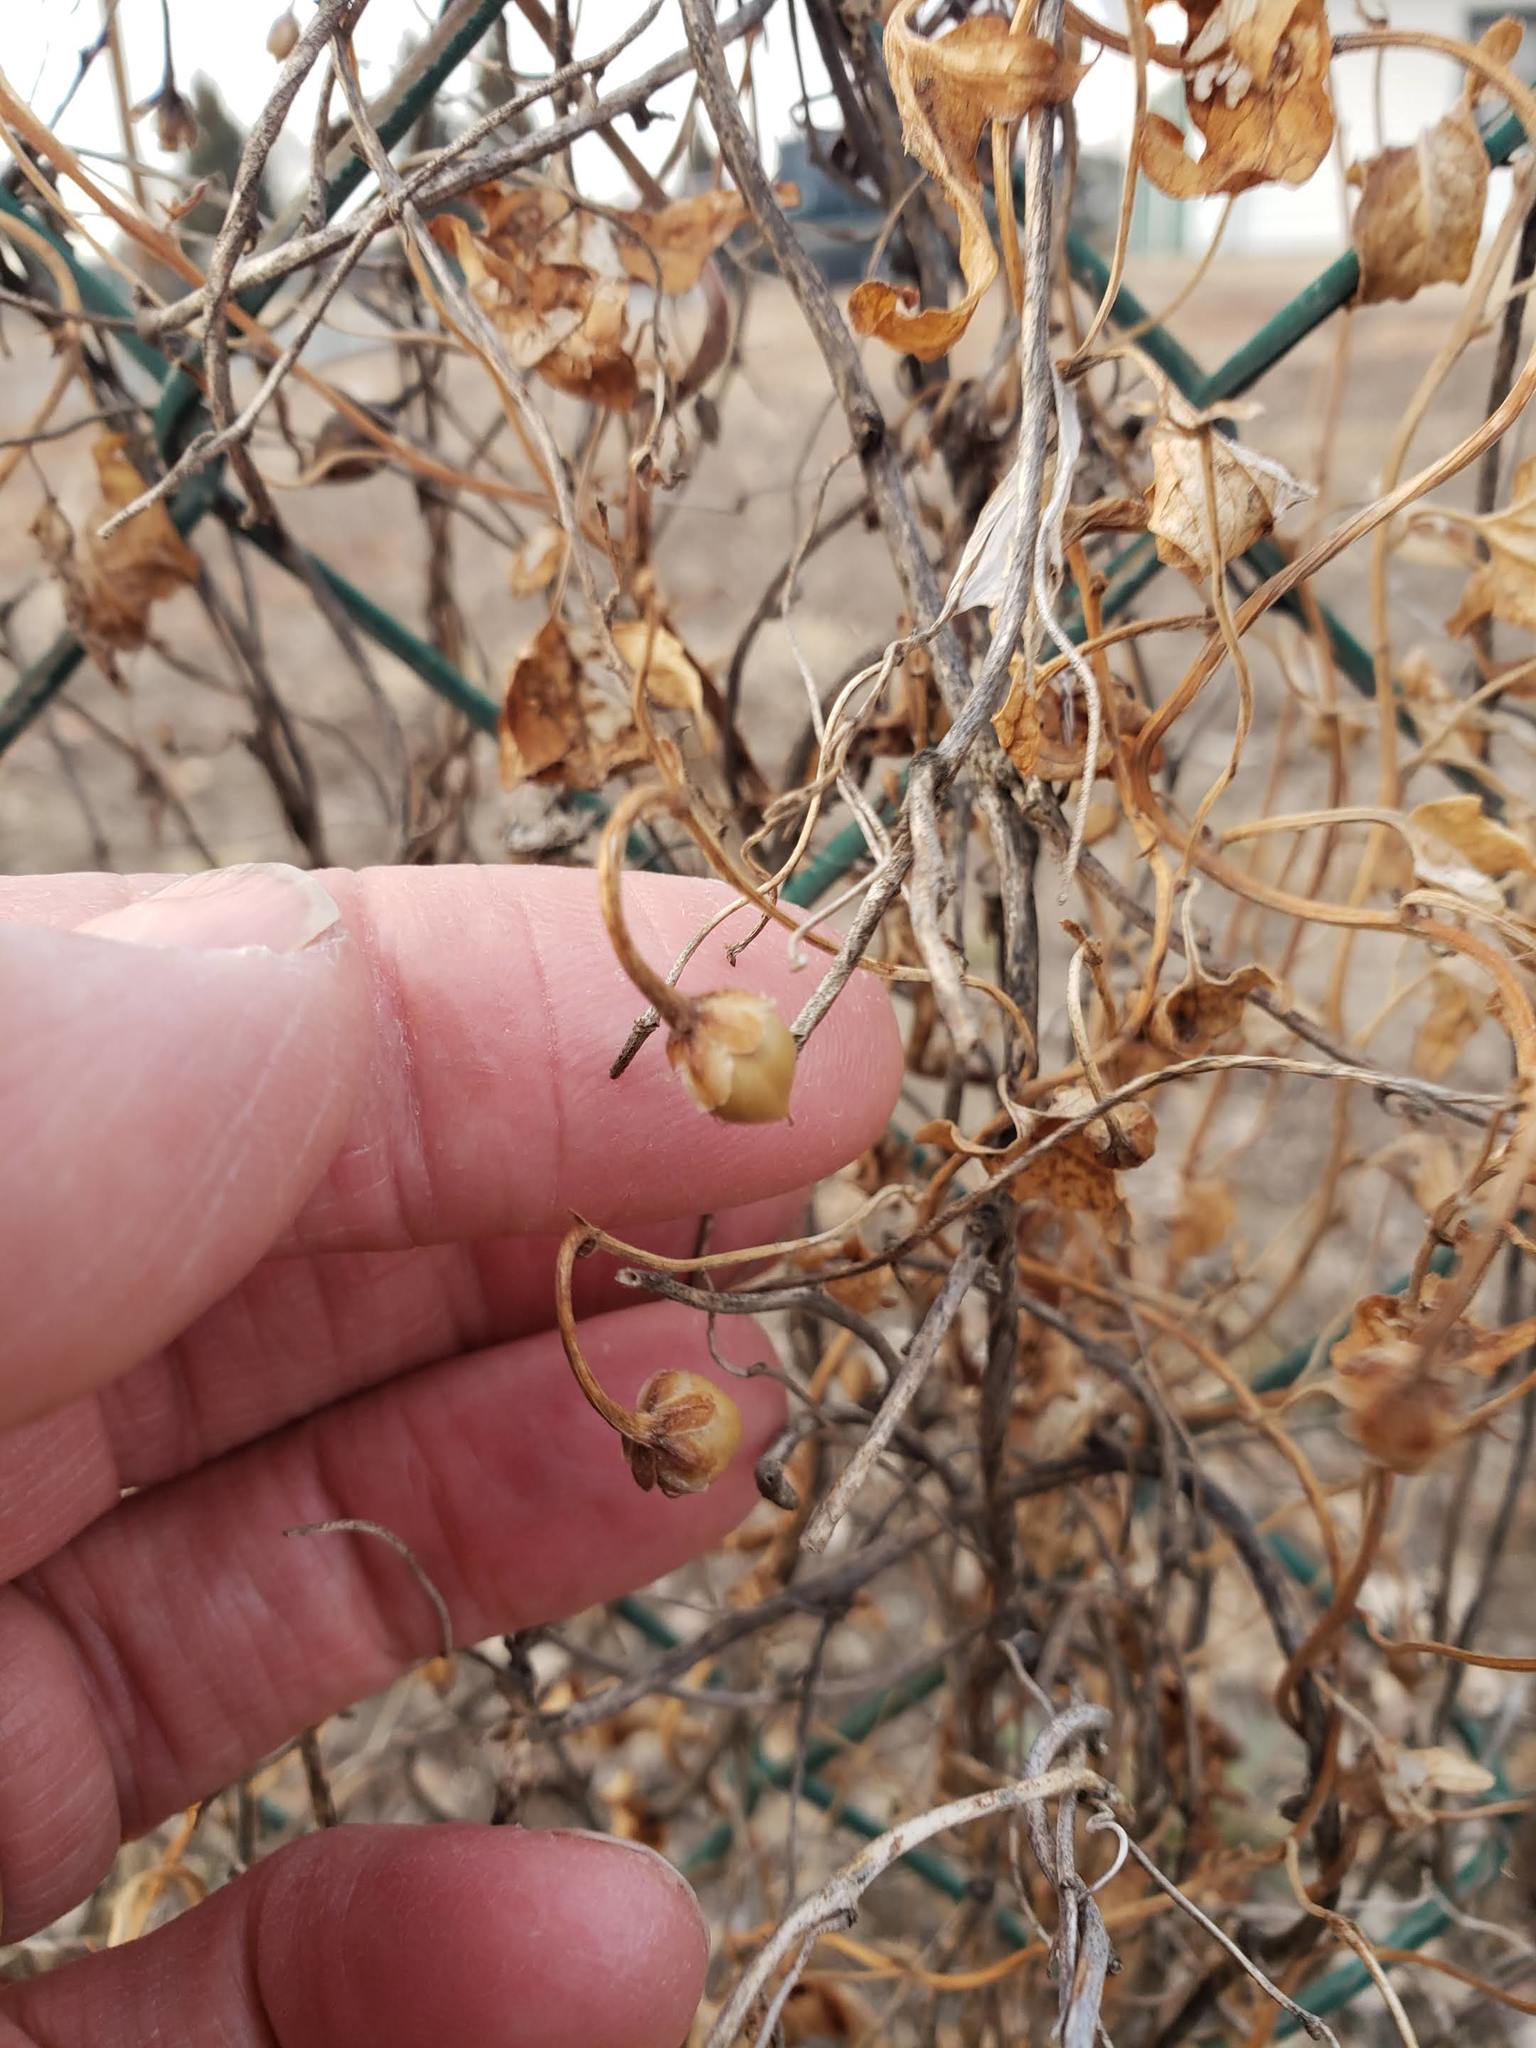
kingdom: Plantae
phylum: Tracheophyta
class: Magnoliopsida
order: Solanales
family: Convolvulaceae
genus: Convolvulus
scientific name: Convolvulus arvensis
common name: Field bindweed
